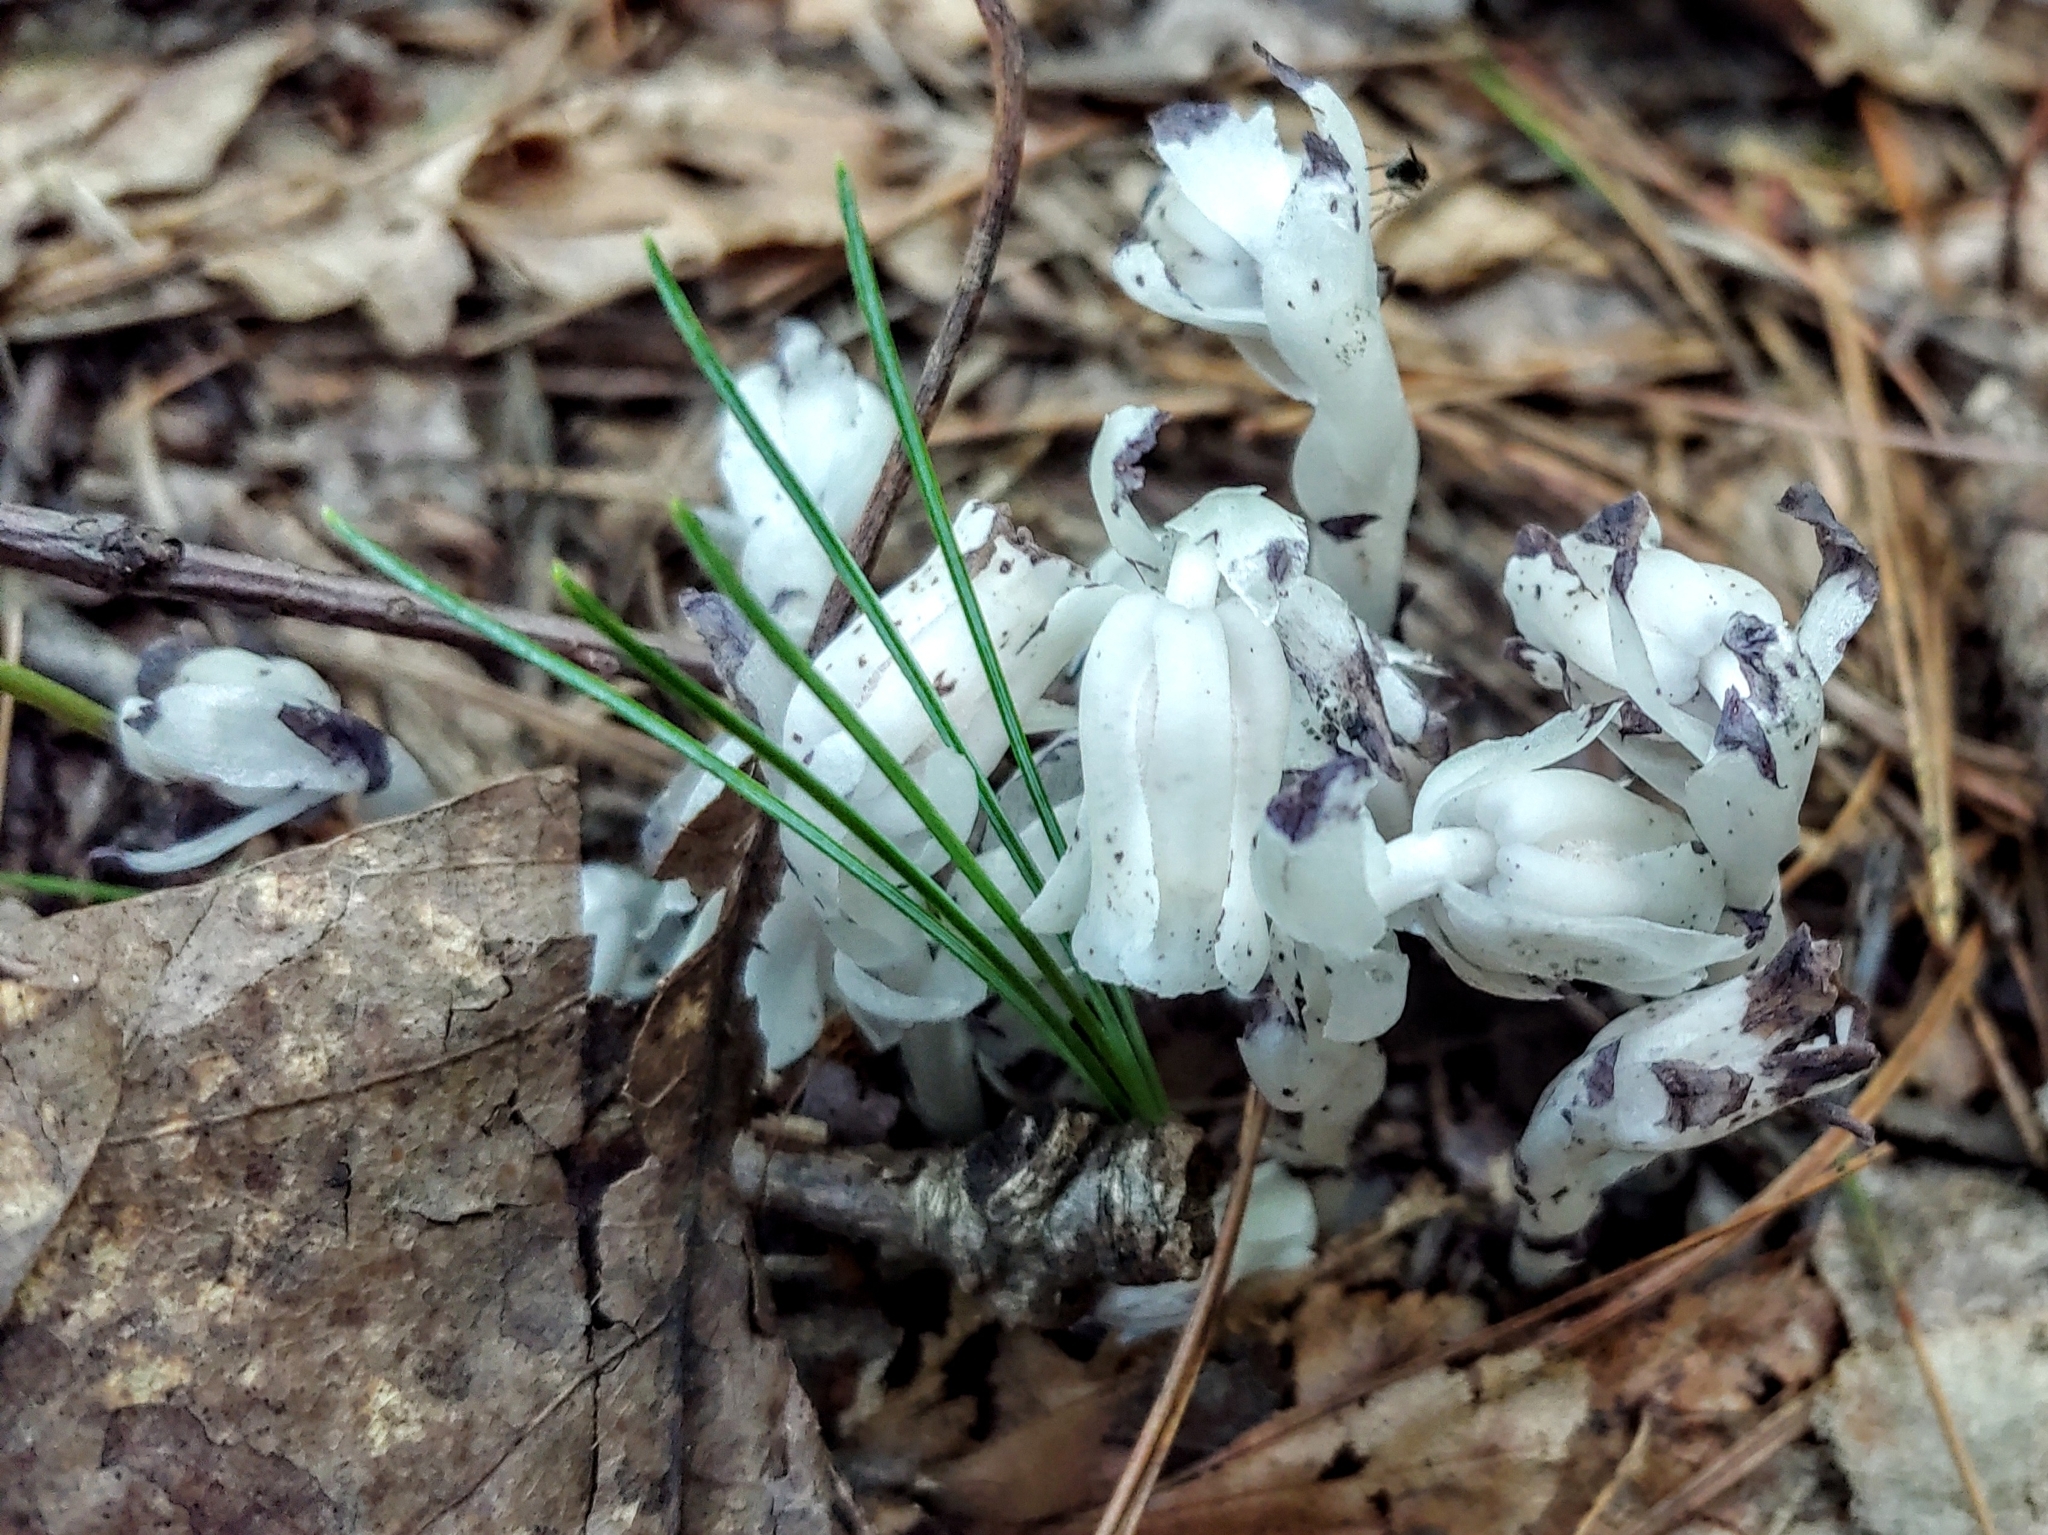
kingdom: Plantae
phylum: Tracheophyta
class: Magnoliopsida
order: Ericales
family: Ericaceae
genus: Monotropa
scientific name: Monotropa uniflora
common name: Convulsion root
